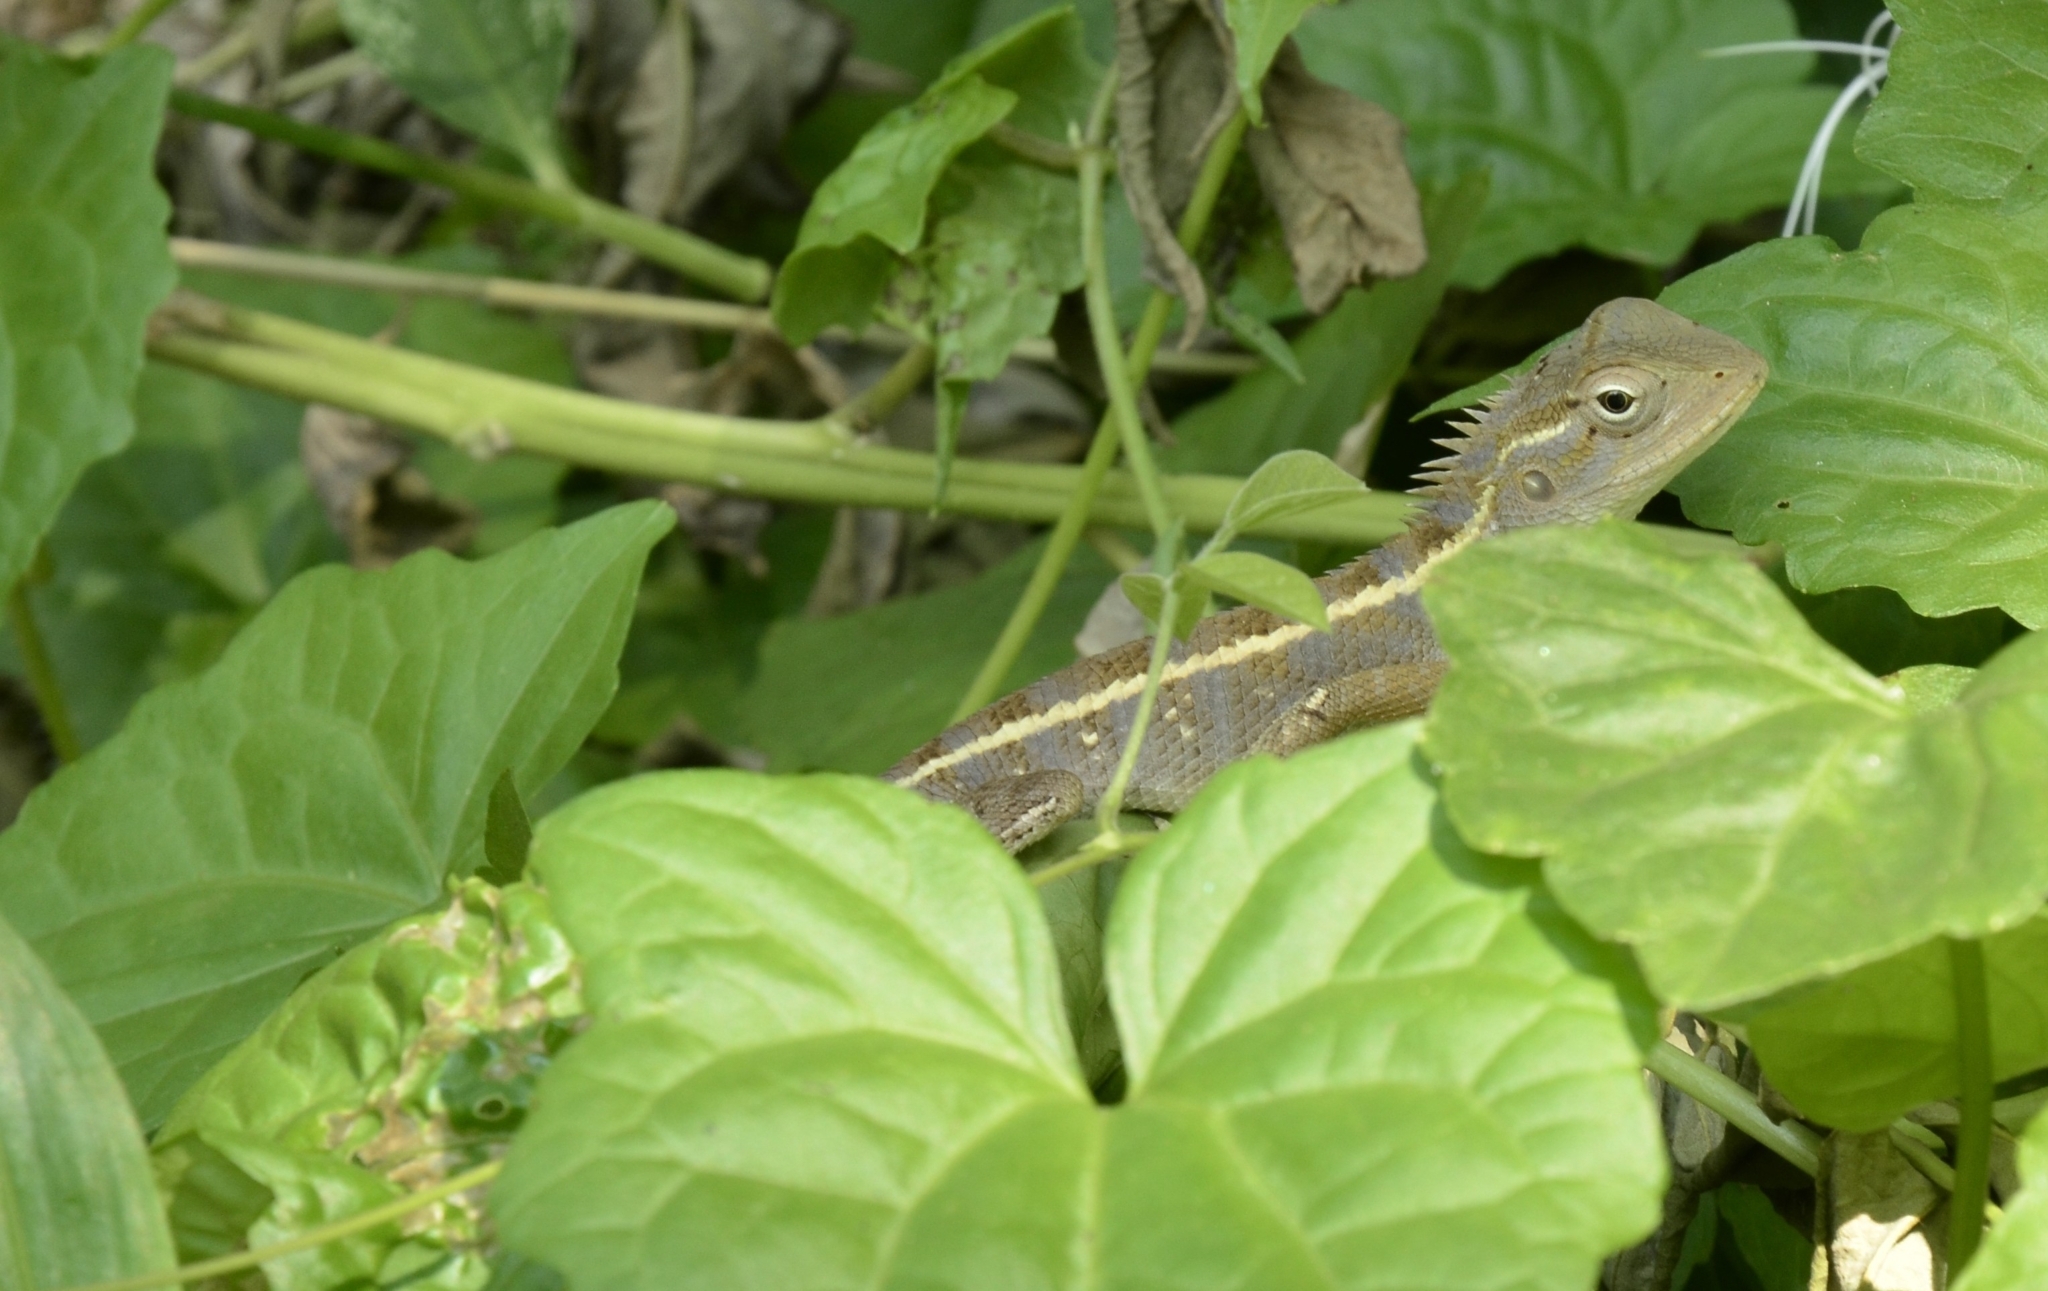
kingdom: Animalia
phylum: Chordata
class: Squamata
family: Agamidae
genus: Calotes
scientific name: Calotes versicolor
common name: Oriental garden lizard
